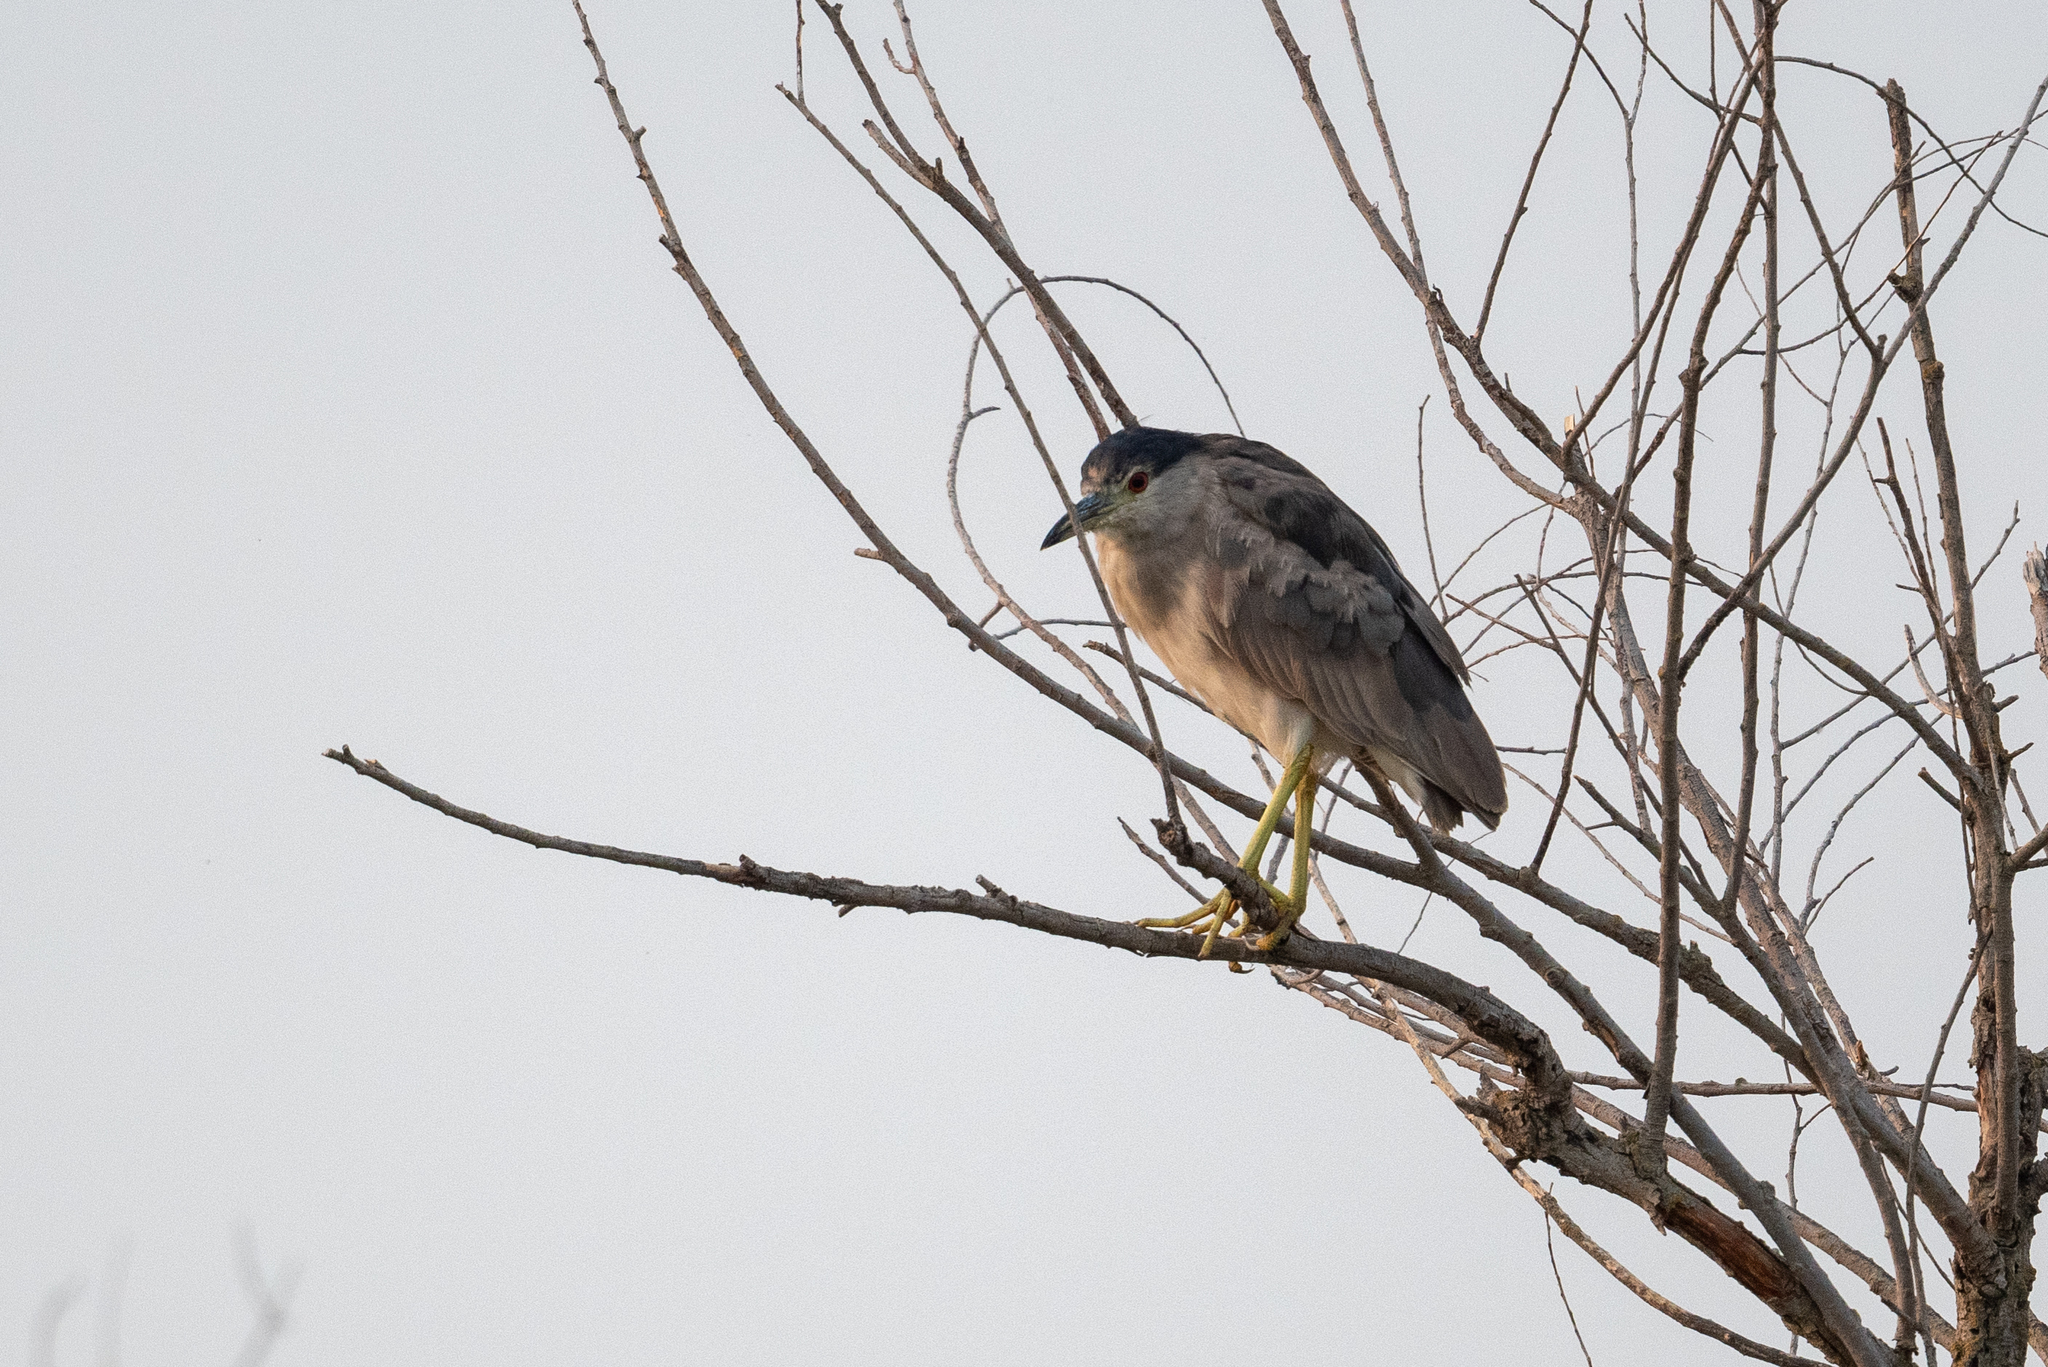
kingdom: Animalia
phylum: Chordata
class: Aves
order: Pelecaniformes
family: Ardeidae
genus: Nycticorax
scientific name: Nycticorax nycticorax
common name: Black-crowned night heron
